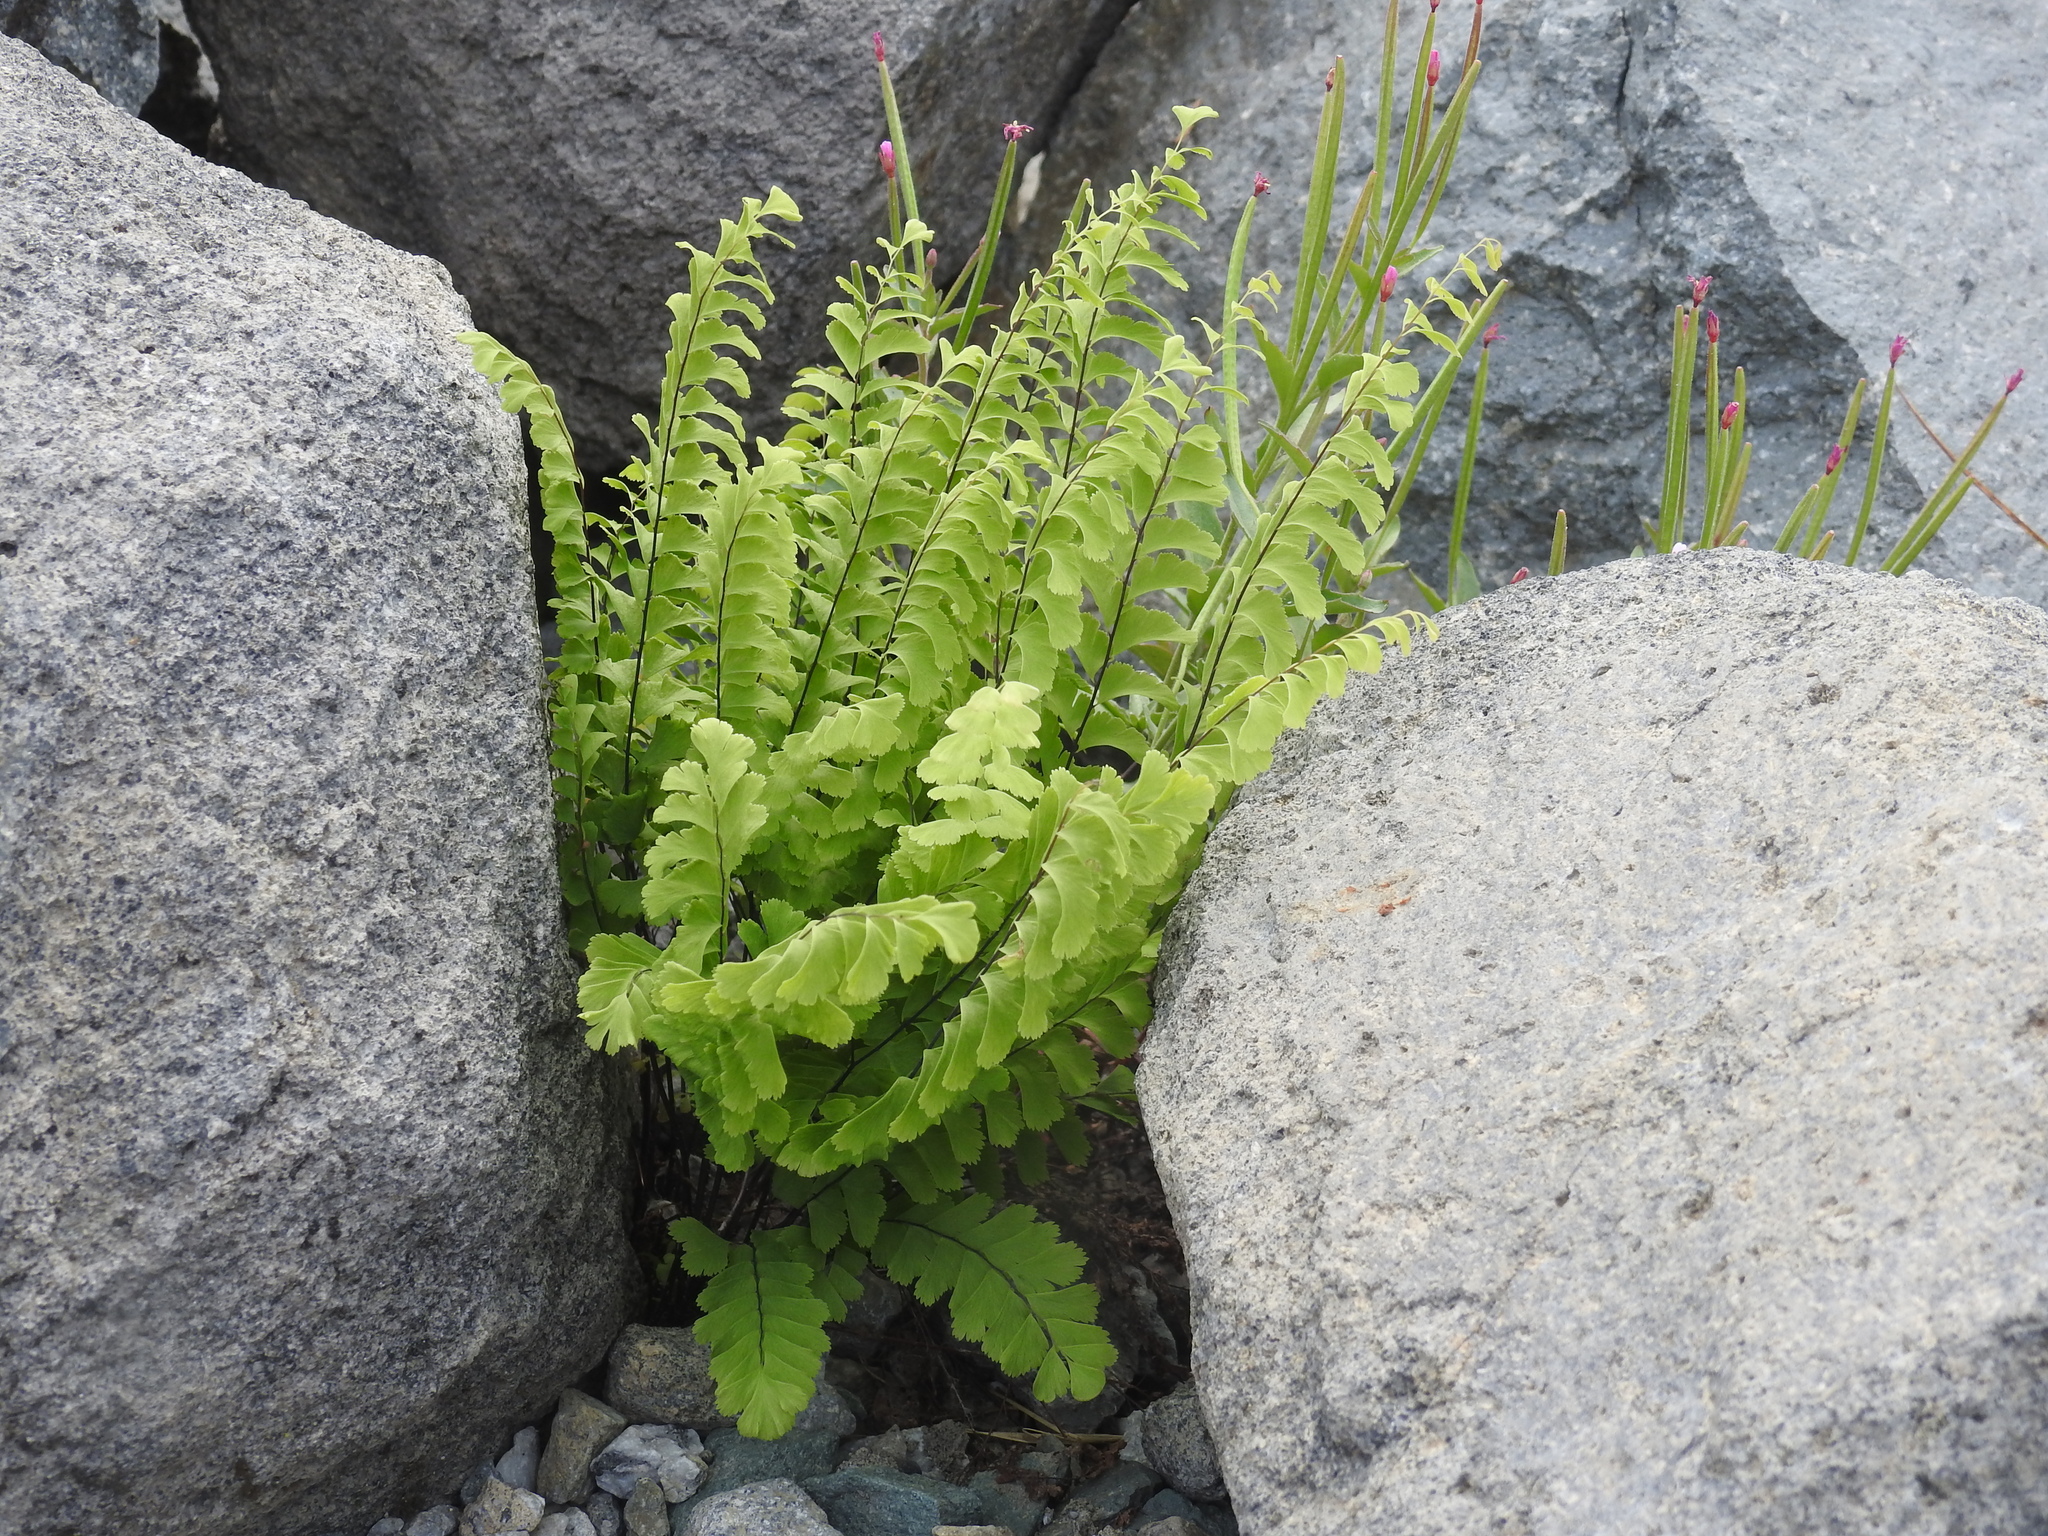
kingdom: Plantae
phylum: Tracheophyta
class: Polypodiopsida
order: Polypodiales
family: Pteridaceae
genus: Adiantum
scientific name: Adiantum aleuticum
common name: Aleutian maidenhair fern
